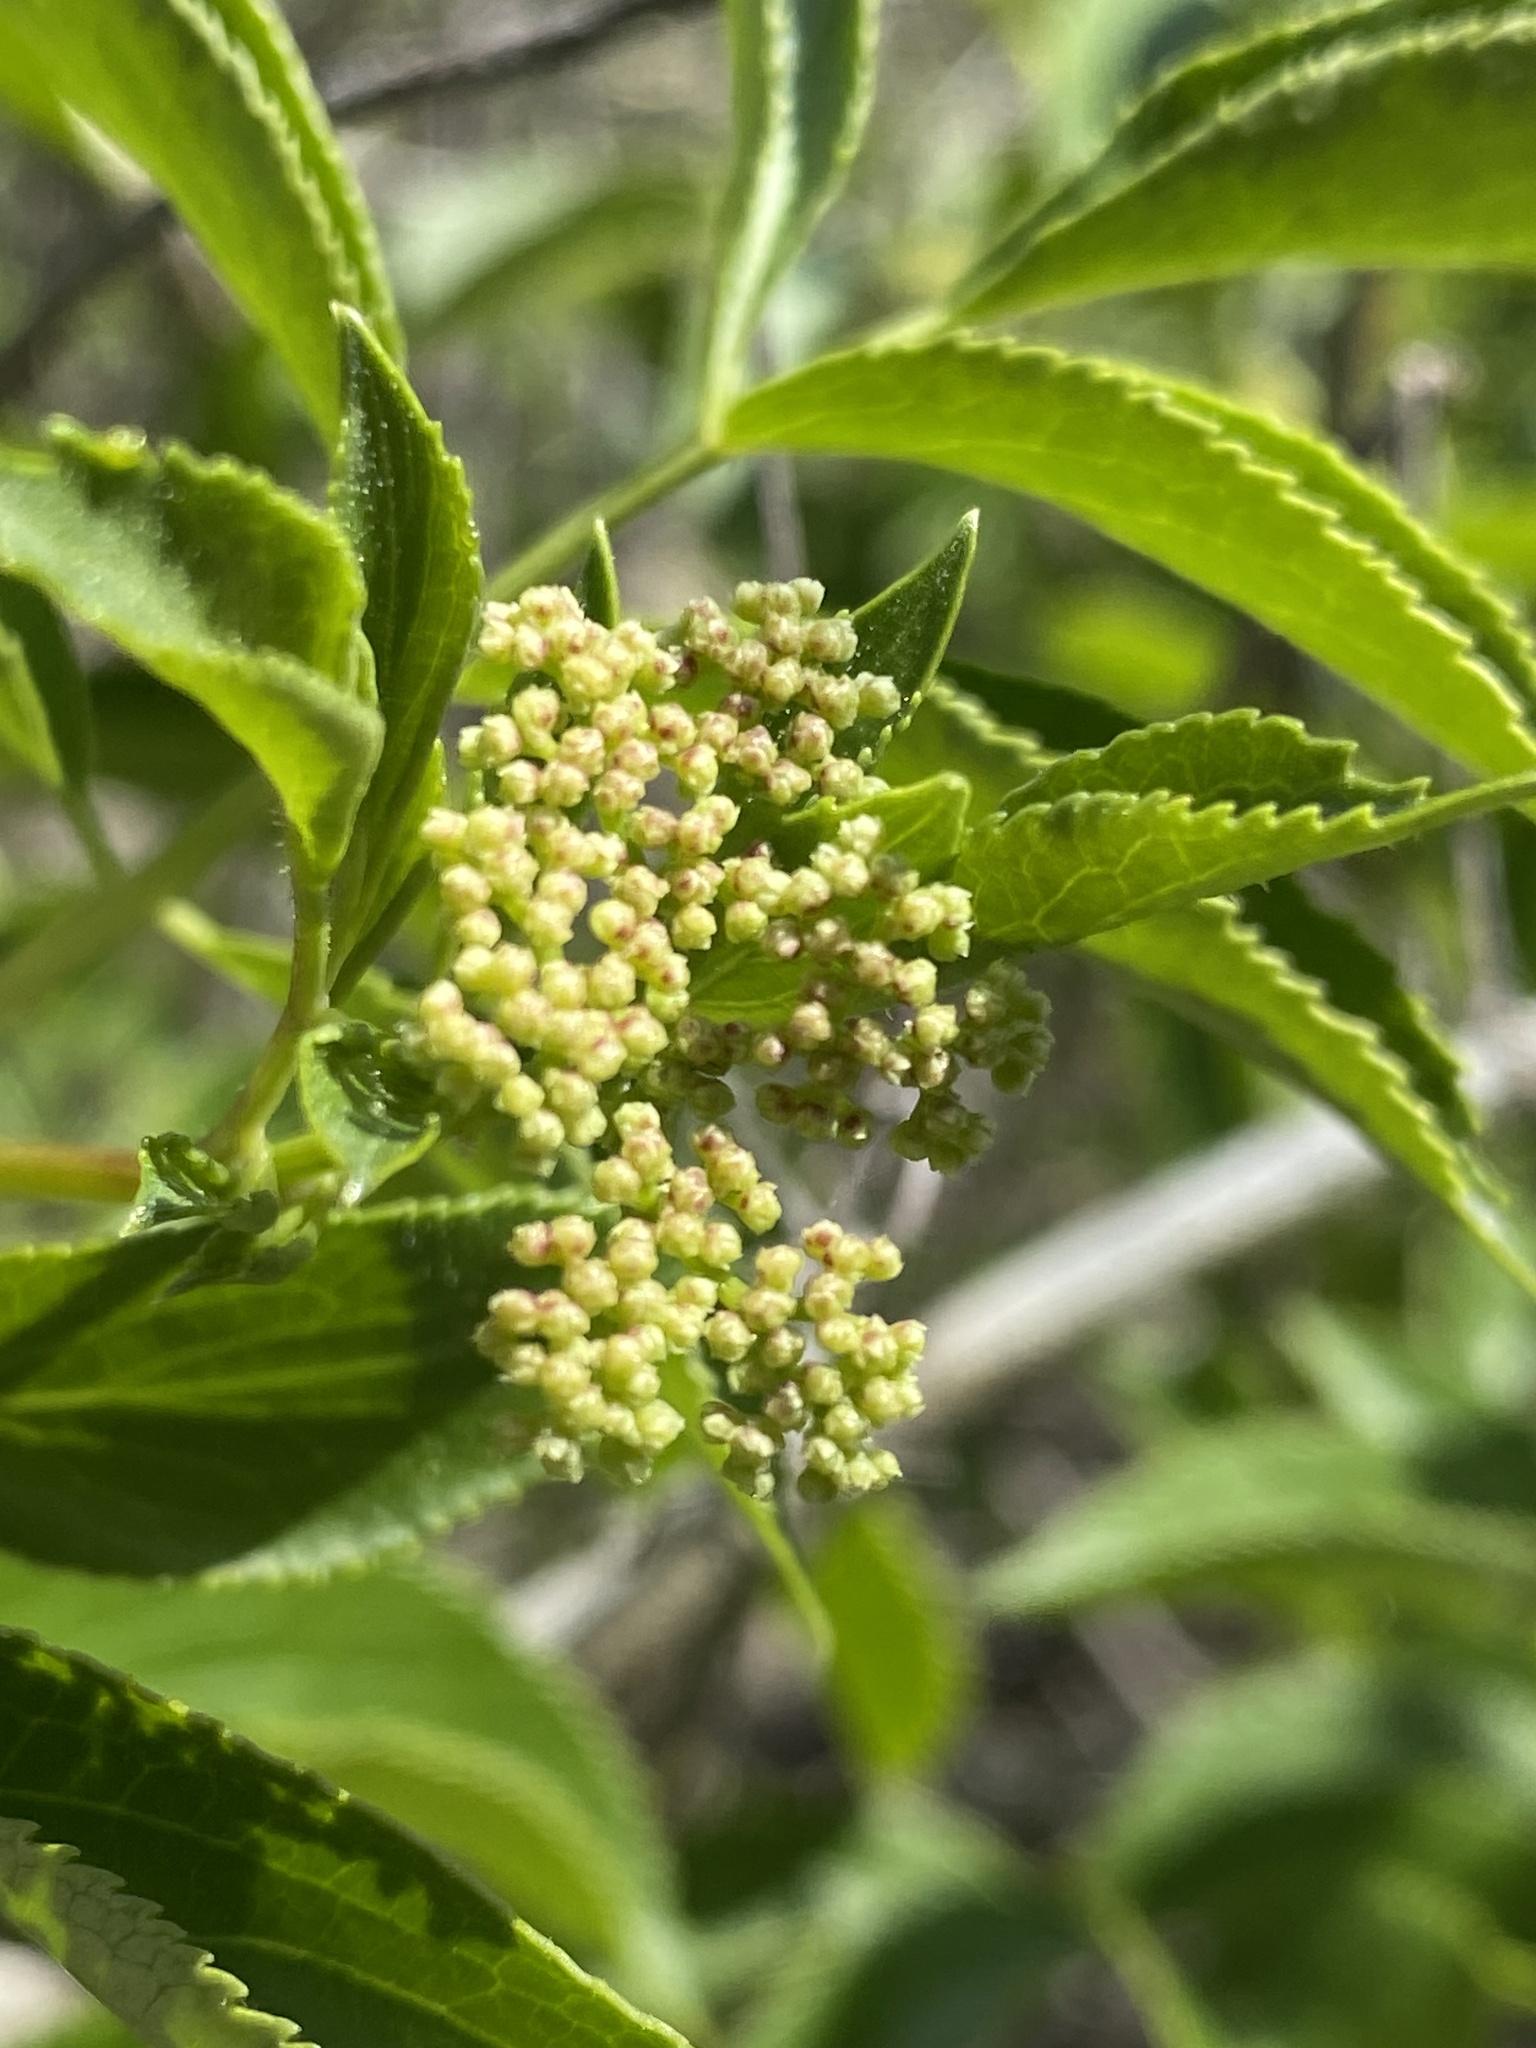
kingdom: Plantae
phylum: Tracheophyta
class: Magnoliopsida
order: Dipsacales
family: Viburnaceae
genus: Sambucus
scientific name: Sambucus cerulea
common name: Blue elder
